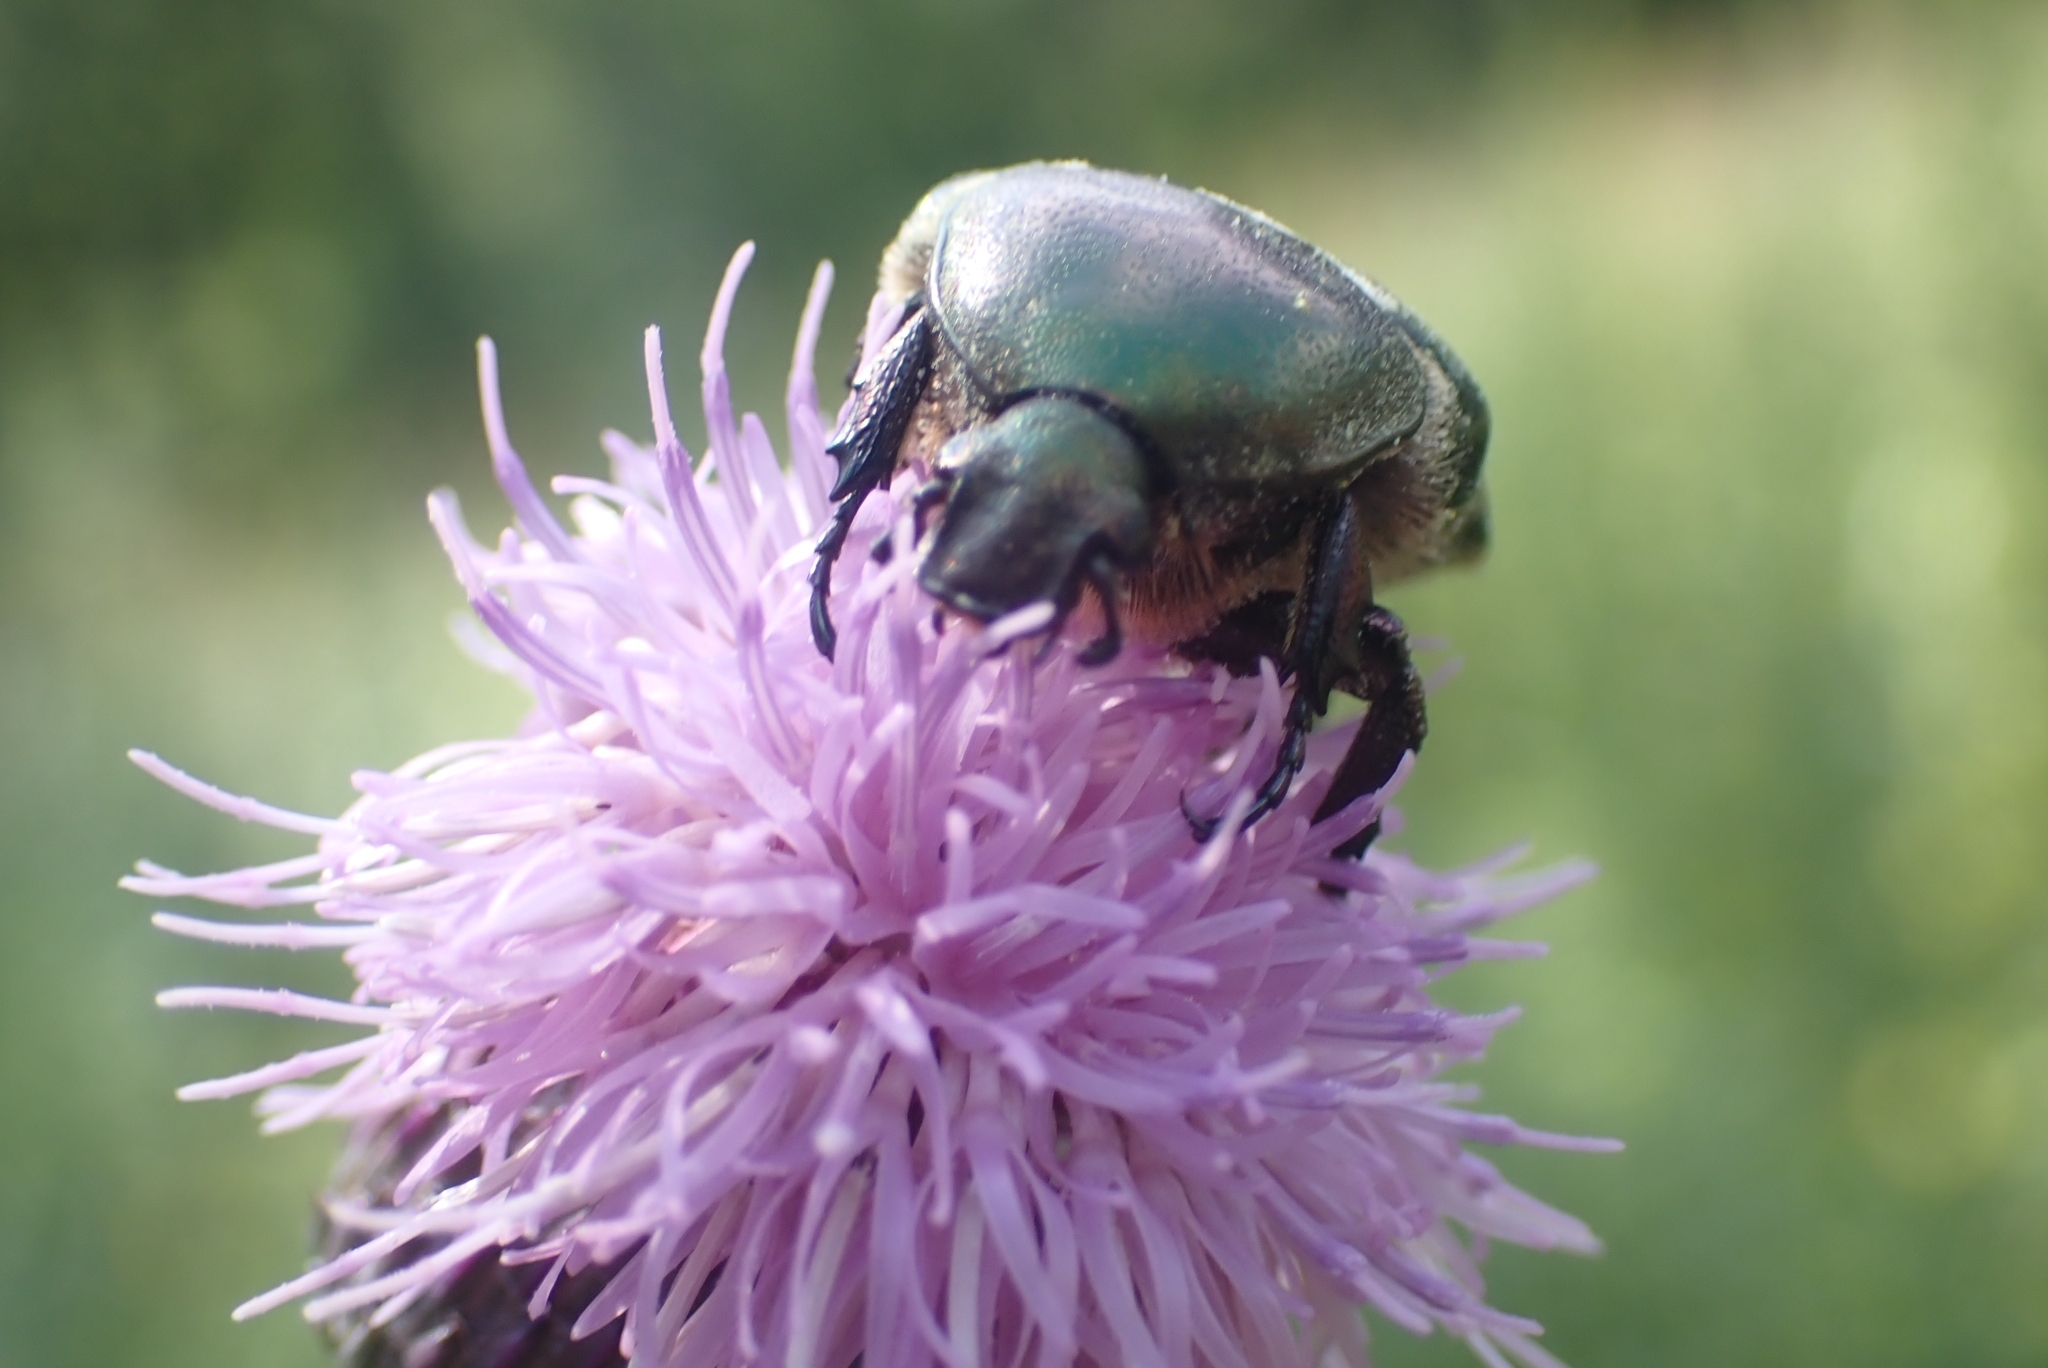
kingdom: Animalia
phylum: Arthropoda
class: Insecta
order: Coleoptera
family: Scarabaeidae
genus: Protaetia
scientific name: Protaetia cuprea
